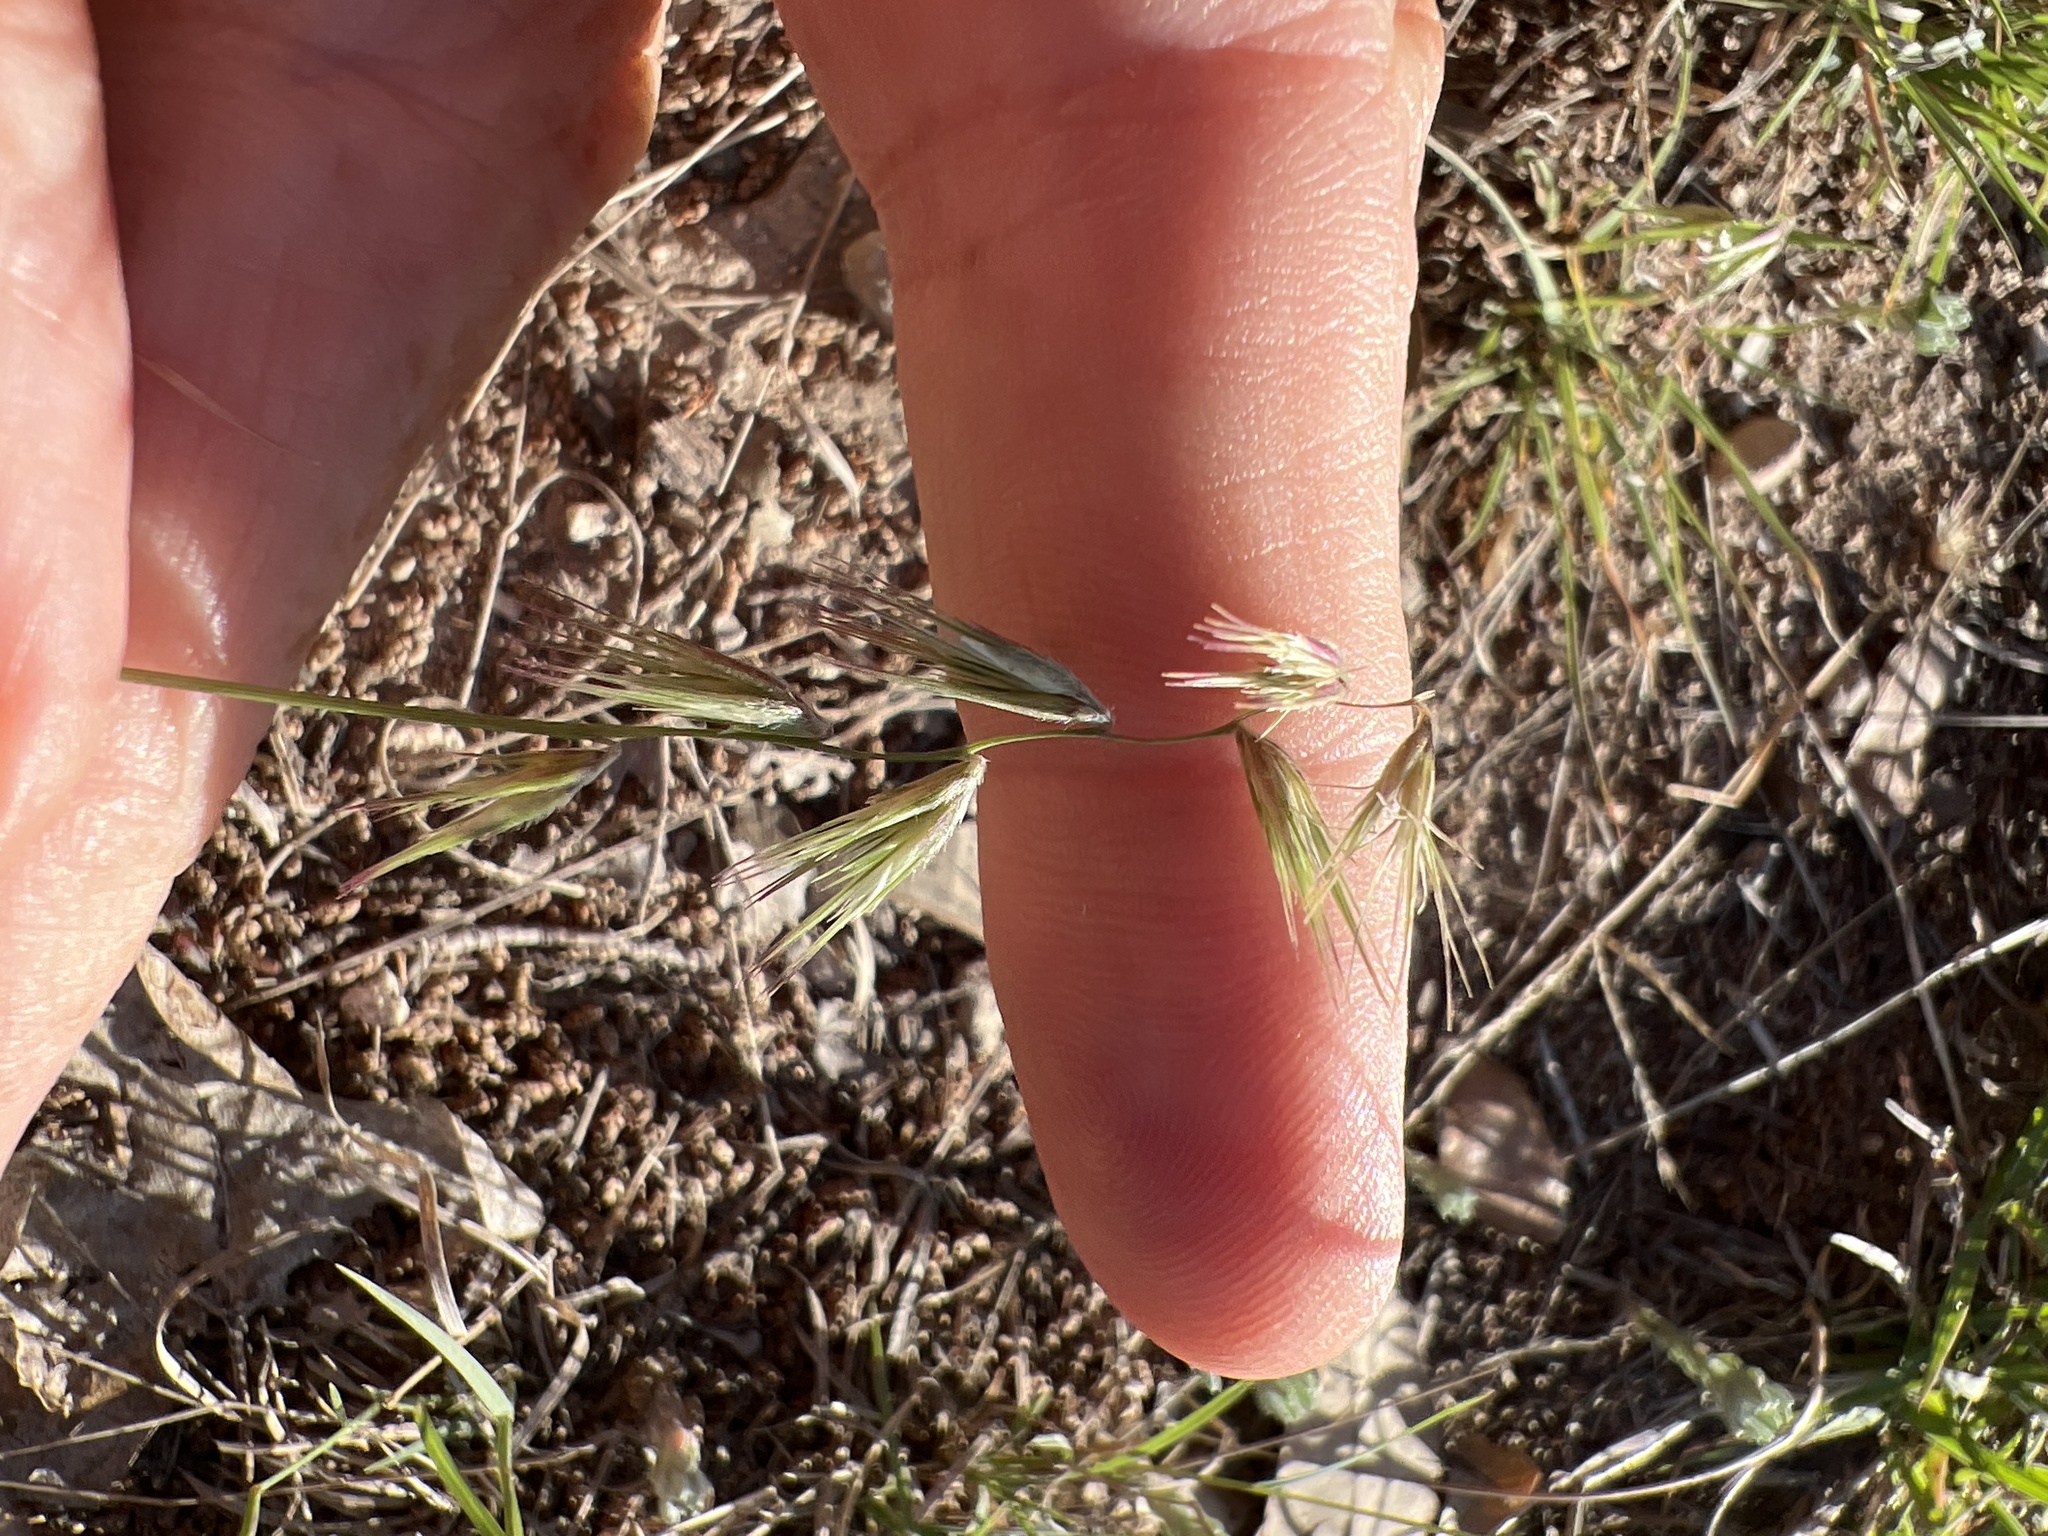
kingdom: Plantae
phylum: Tracheophyta
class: Liliopsida
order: Poales
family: Poaceae
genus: Bouteloua
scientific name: Bouteloua rigidiseta
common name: Texas grama
